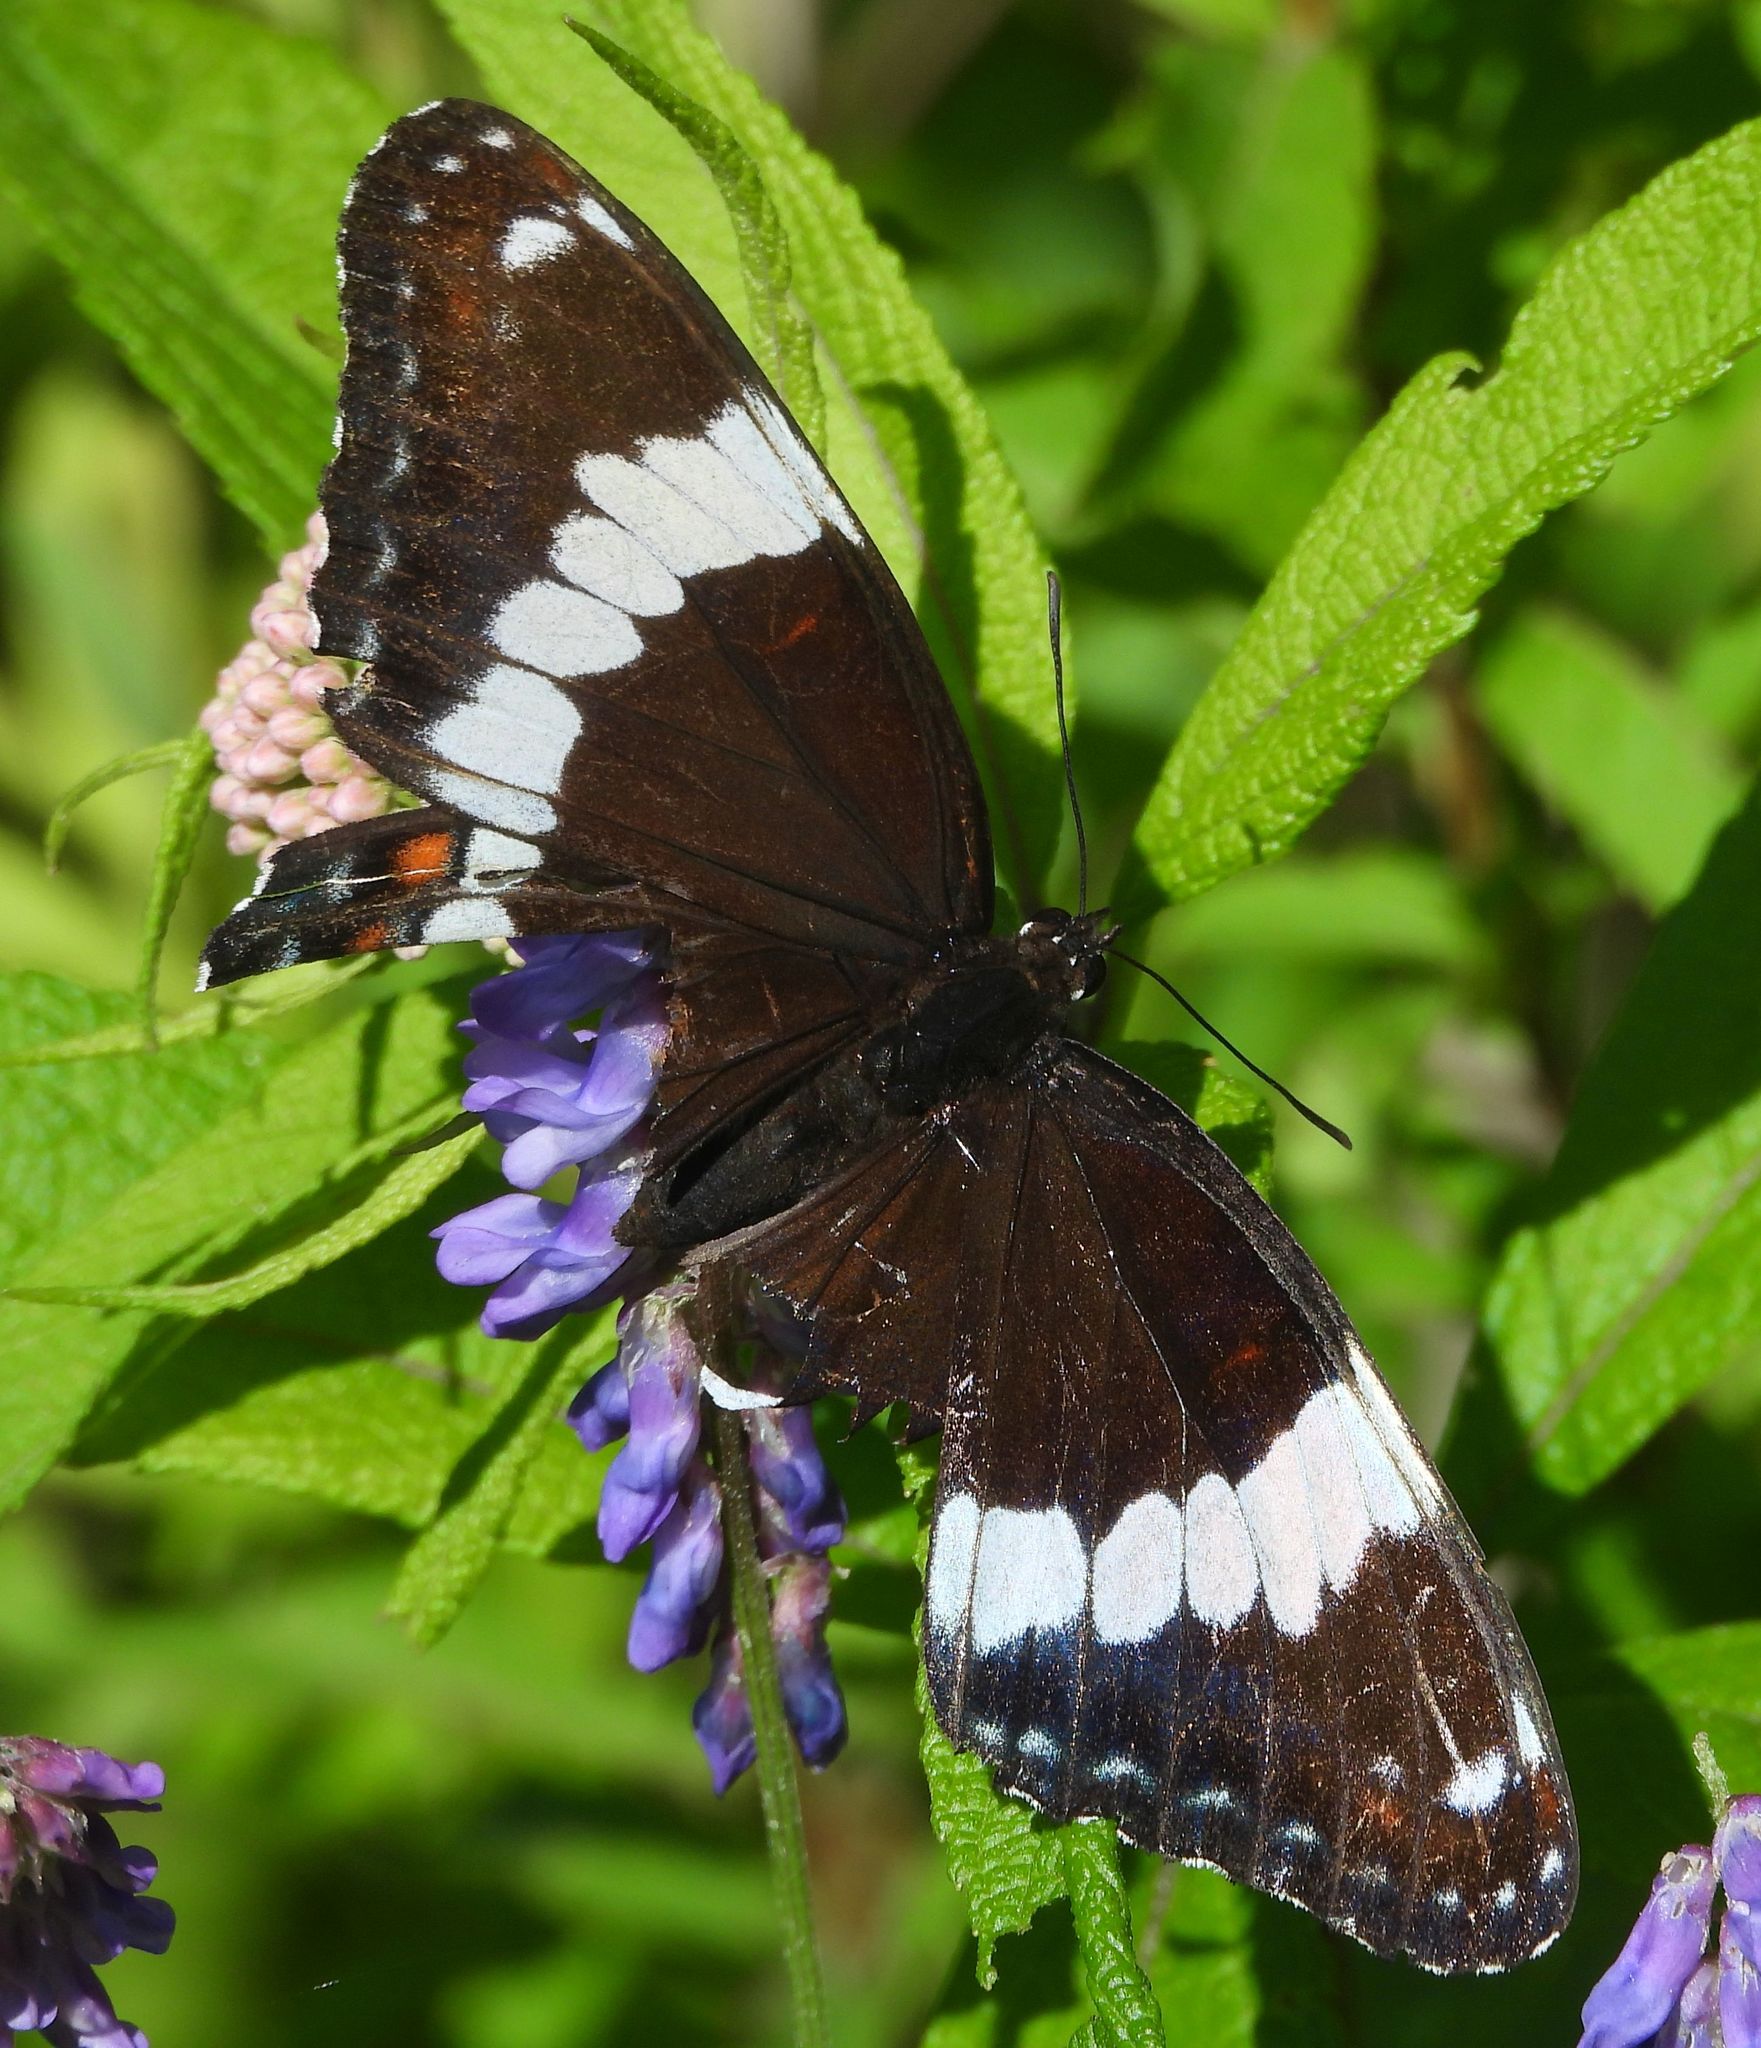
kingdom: Animalia
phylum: Arthropoda
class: Insecta
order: Lepidoptera
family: Nymphalidae
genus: Limenitis
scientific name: Limenitis arthemis
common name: Red-spotted admiral
